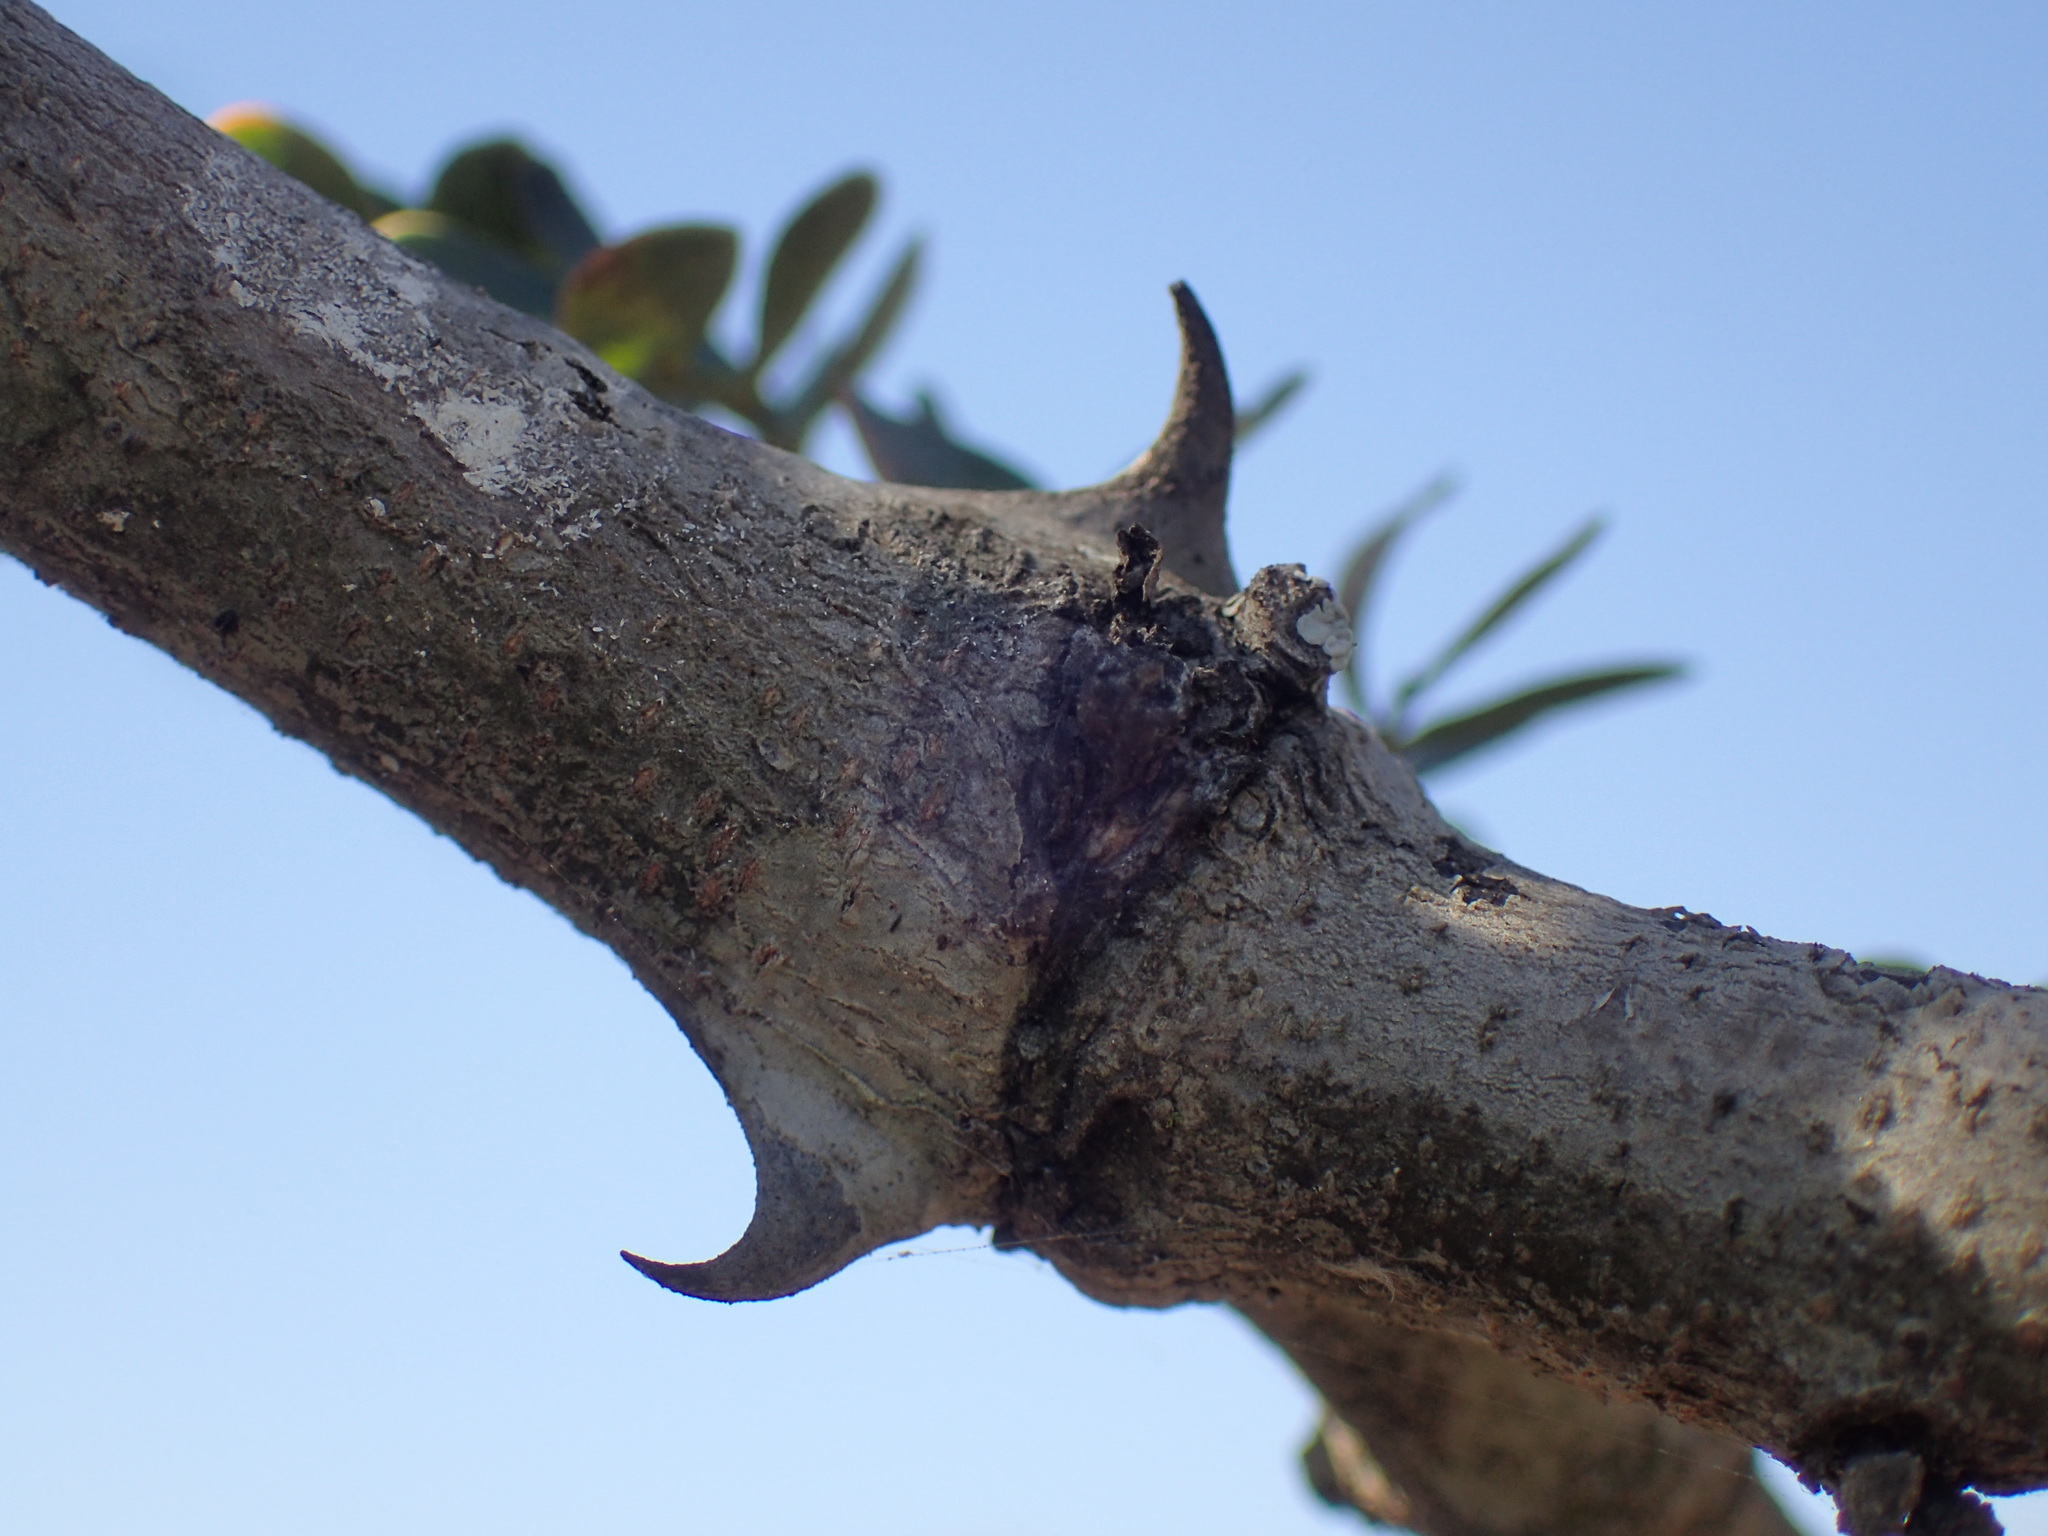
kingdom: Plantae
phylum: Tracheophyta
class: Magnoliopsida
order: Fabales
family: Fabaceae
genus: Senegalia
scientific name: Senegalia burkei
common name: Black monkey thorn
